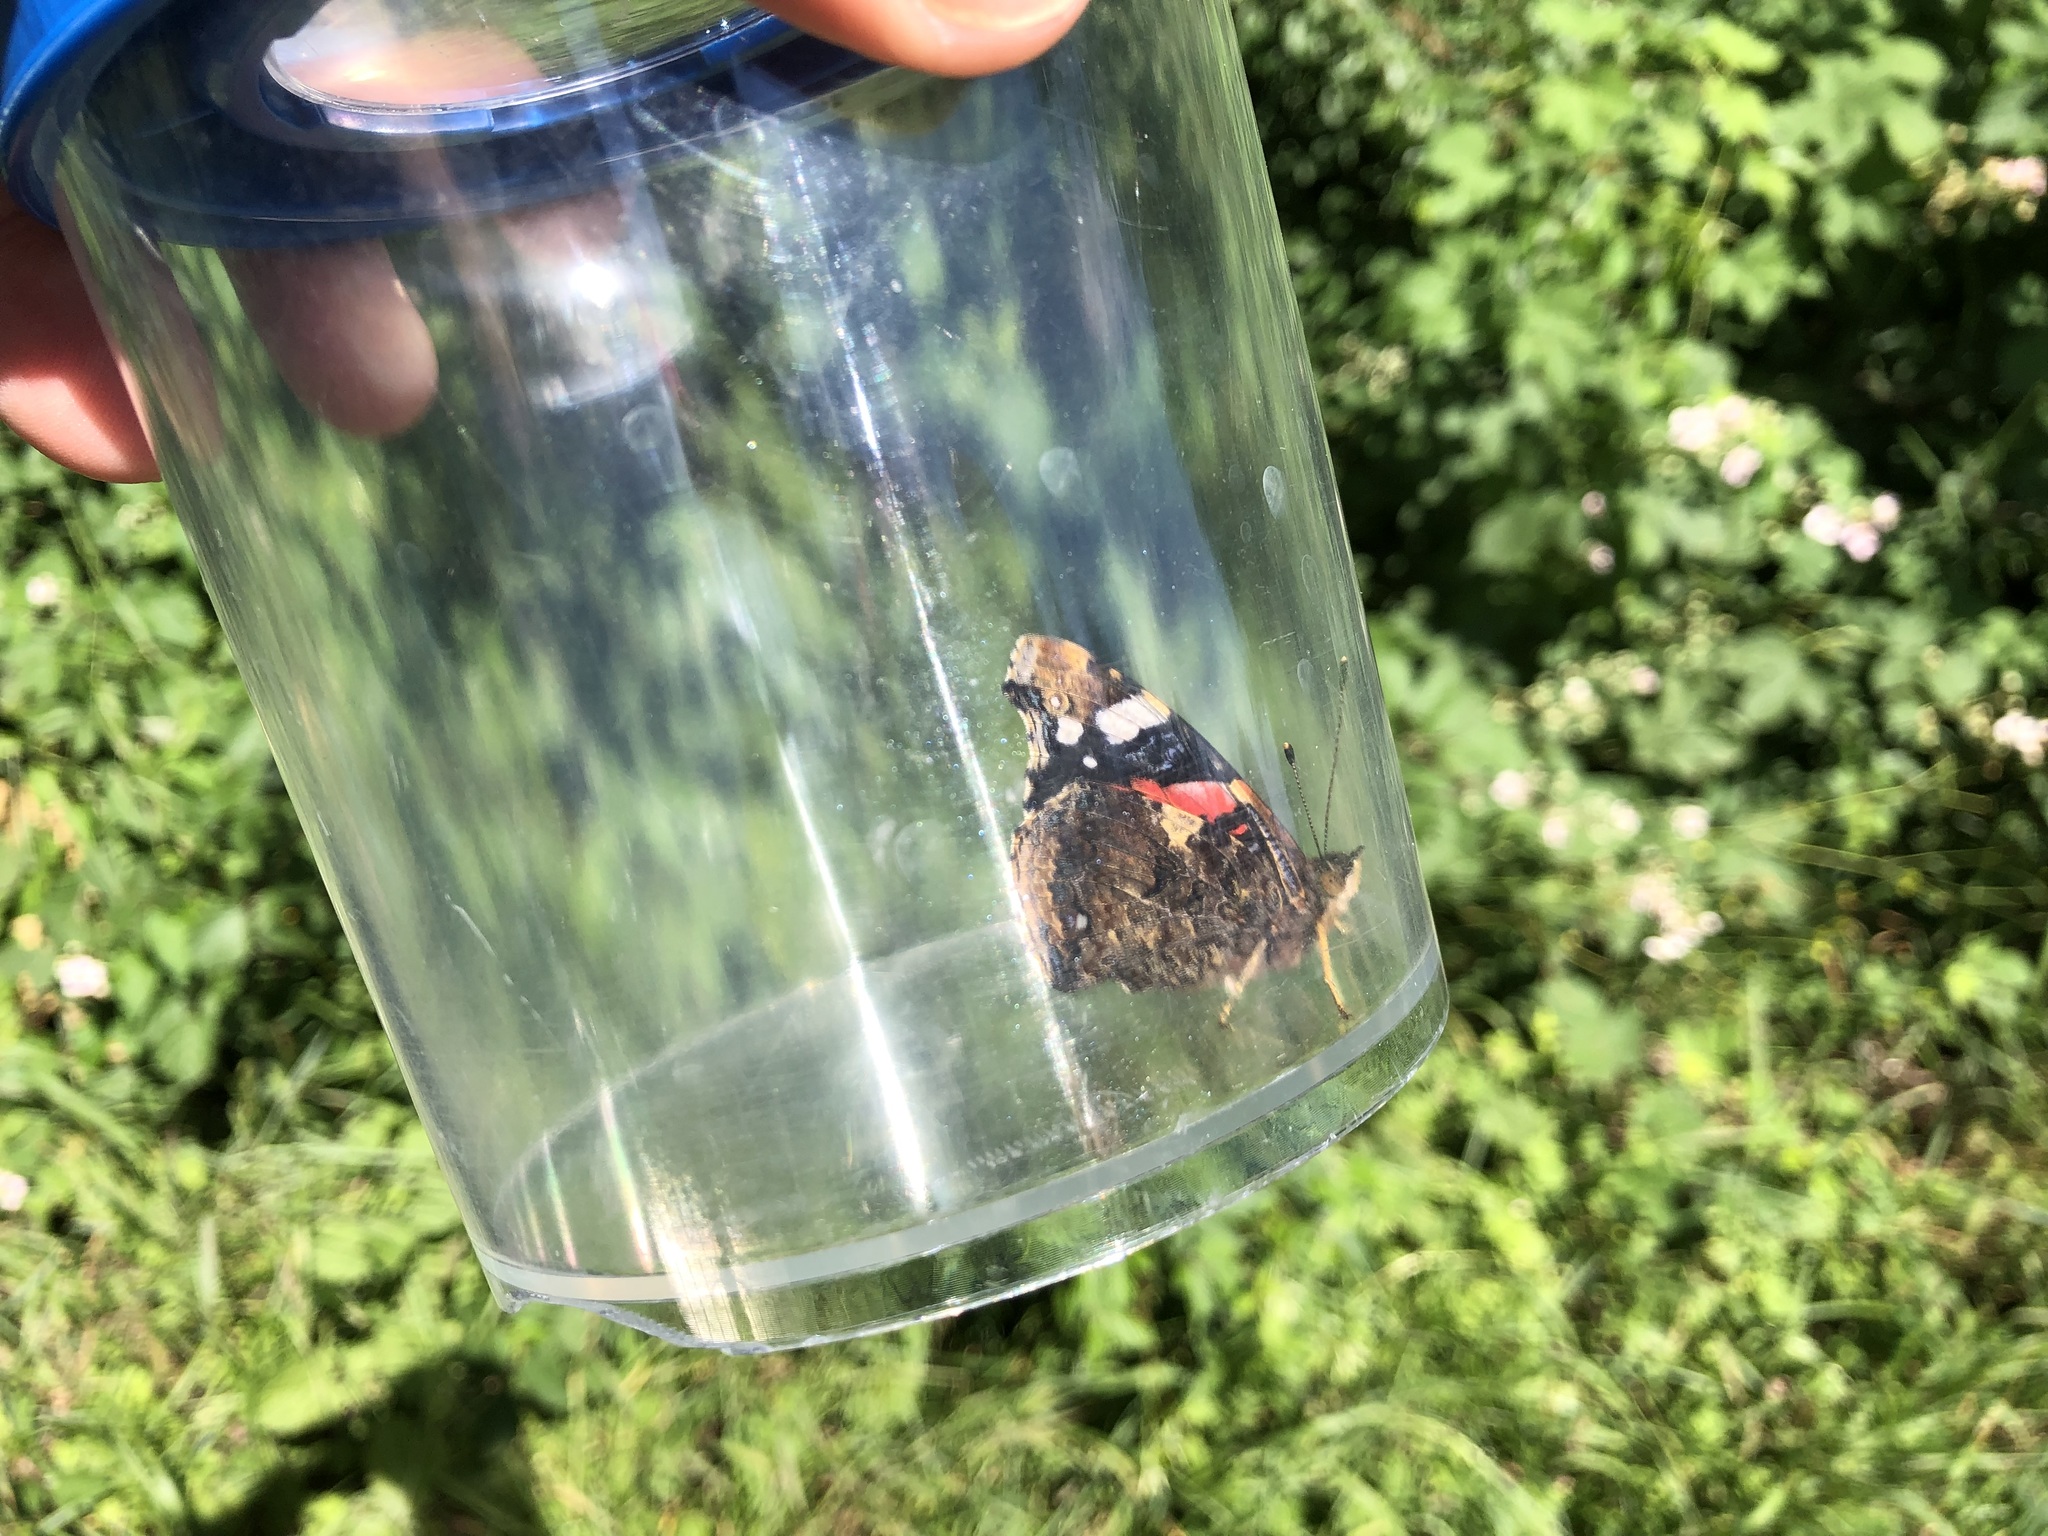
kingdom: Animalia
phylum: Arthropoda
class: Insecta
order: Lepidoptera
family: Nymphalidae
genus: Vanessa
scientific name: Vanessa atalanta
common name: Red admiral
